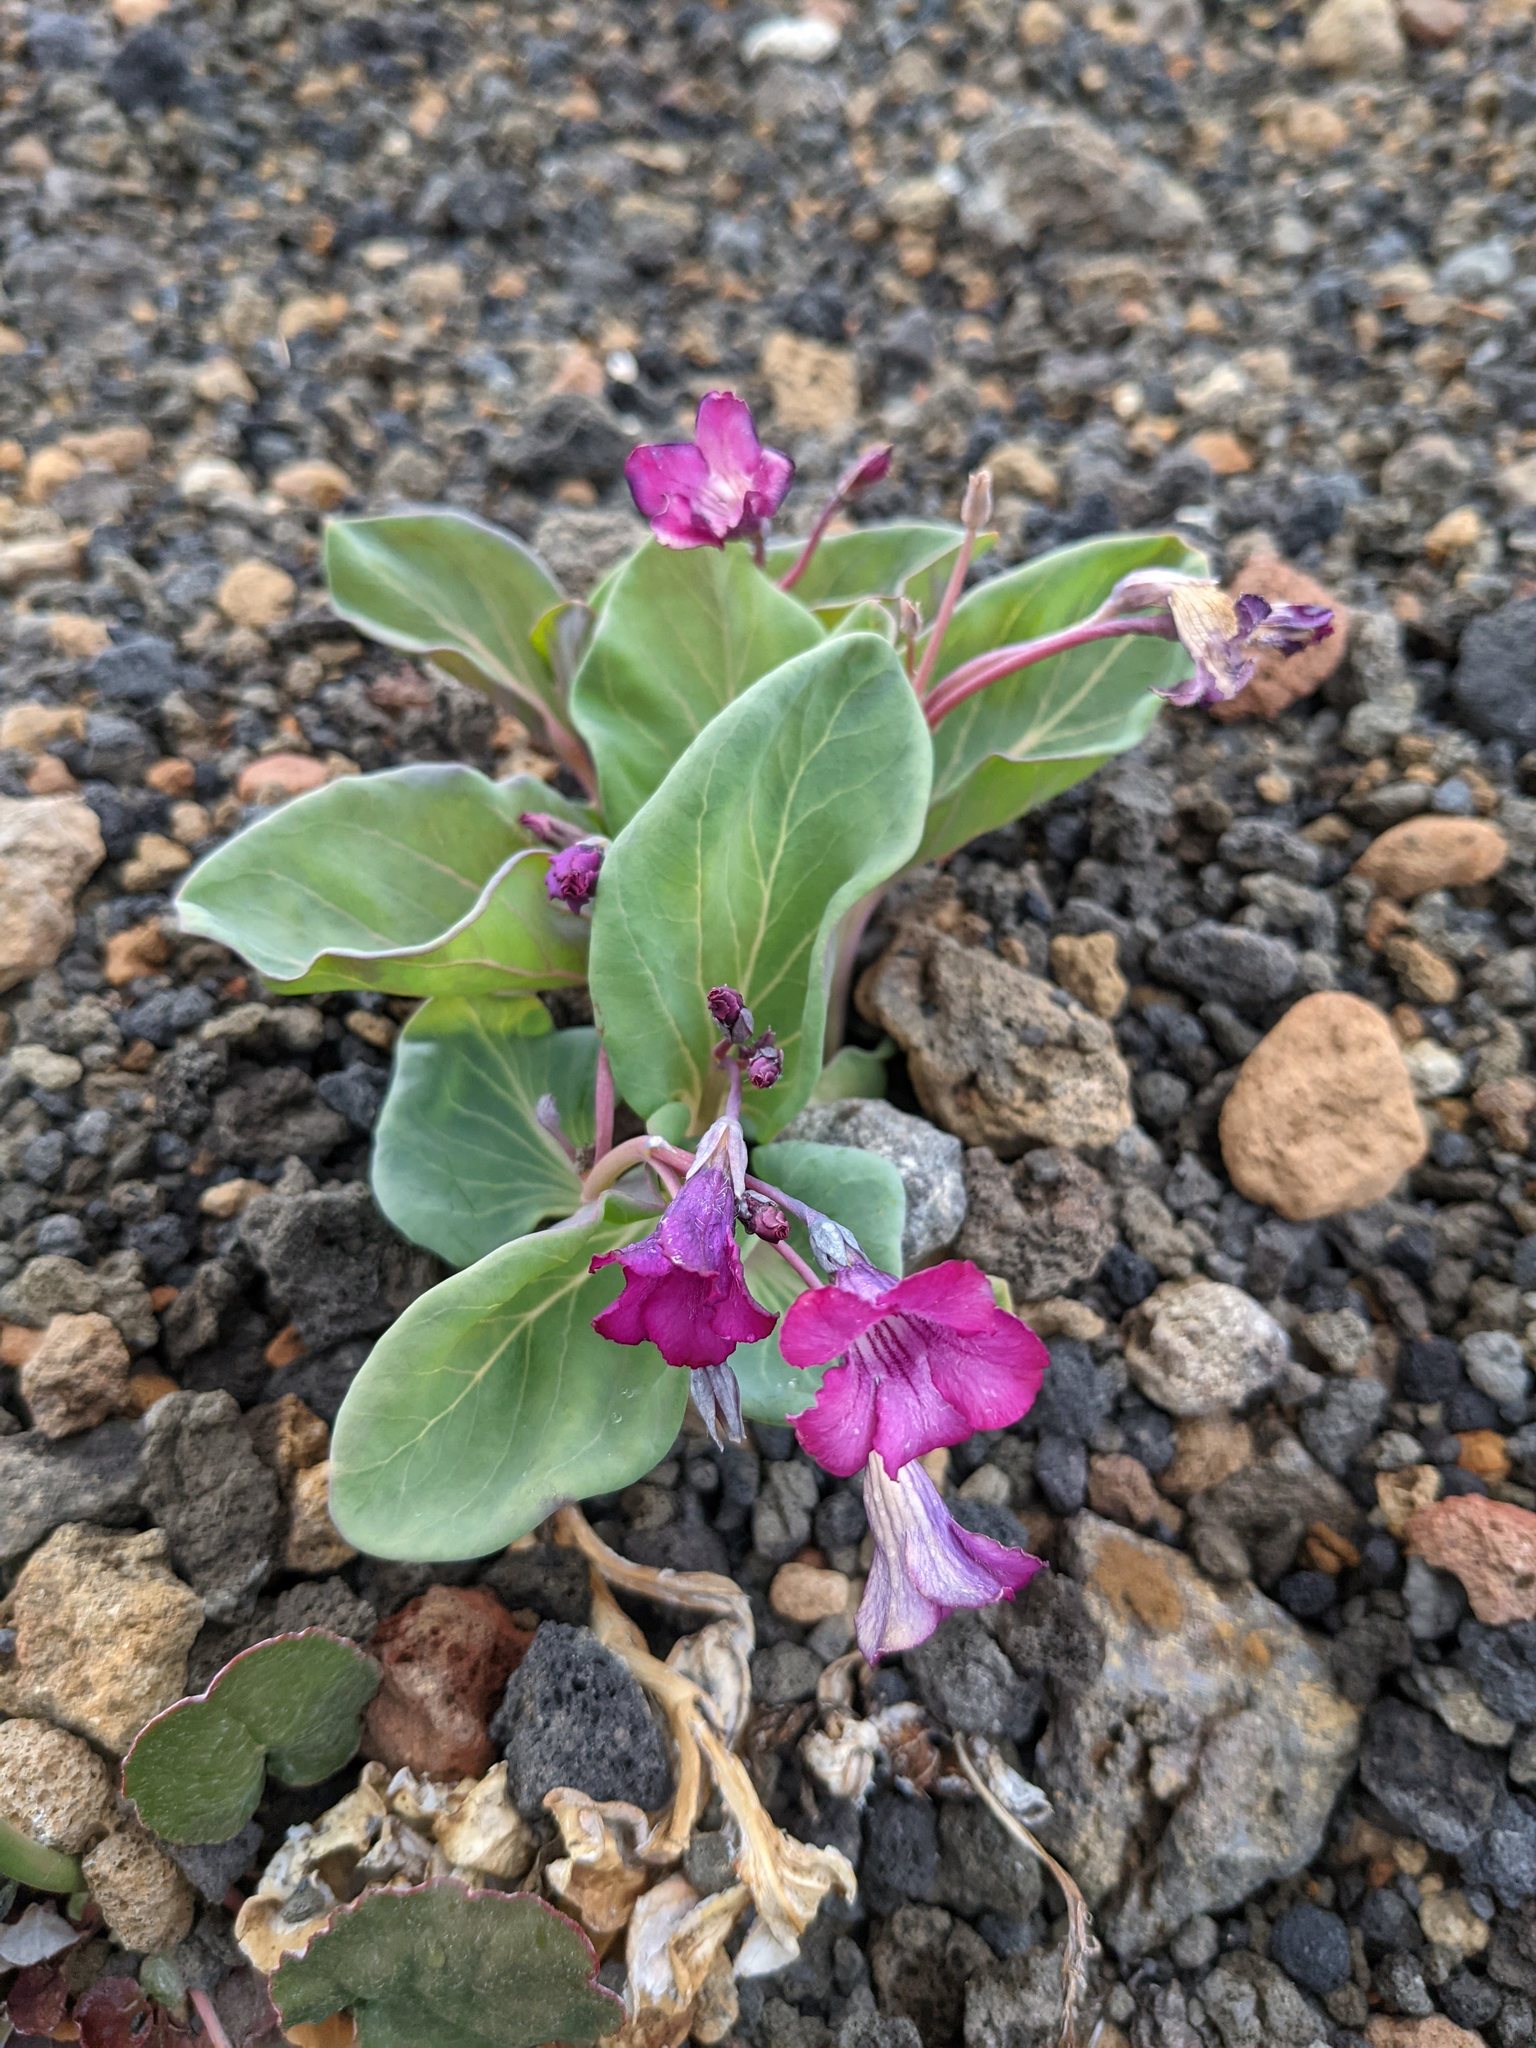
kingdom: Plantae
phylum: Tracheophyta
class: Magnoliopsida
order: Gentianales
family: Apocynaceae
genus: Cycladenia
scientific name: Cycladenia humilis
